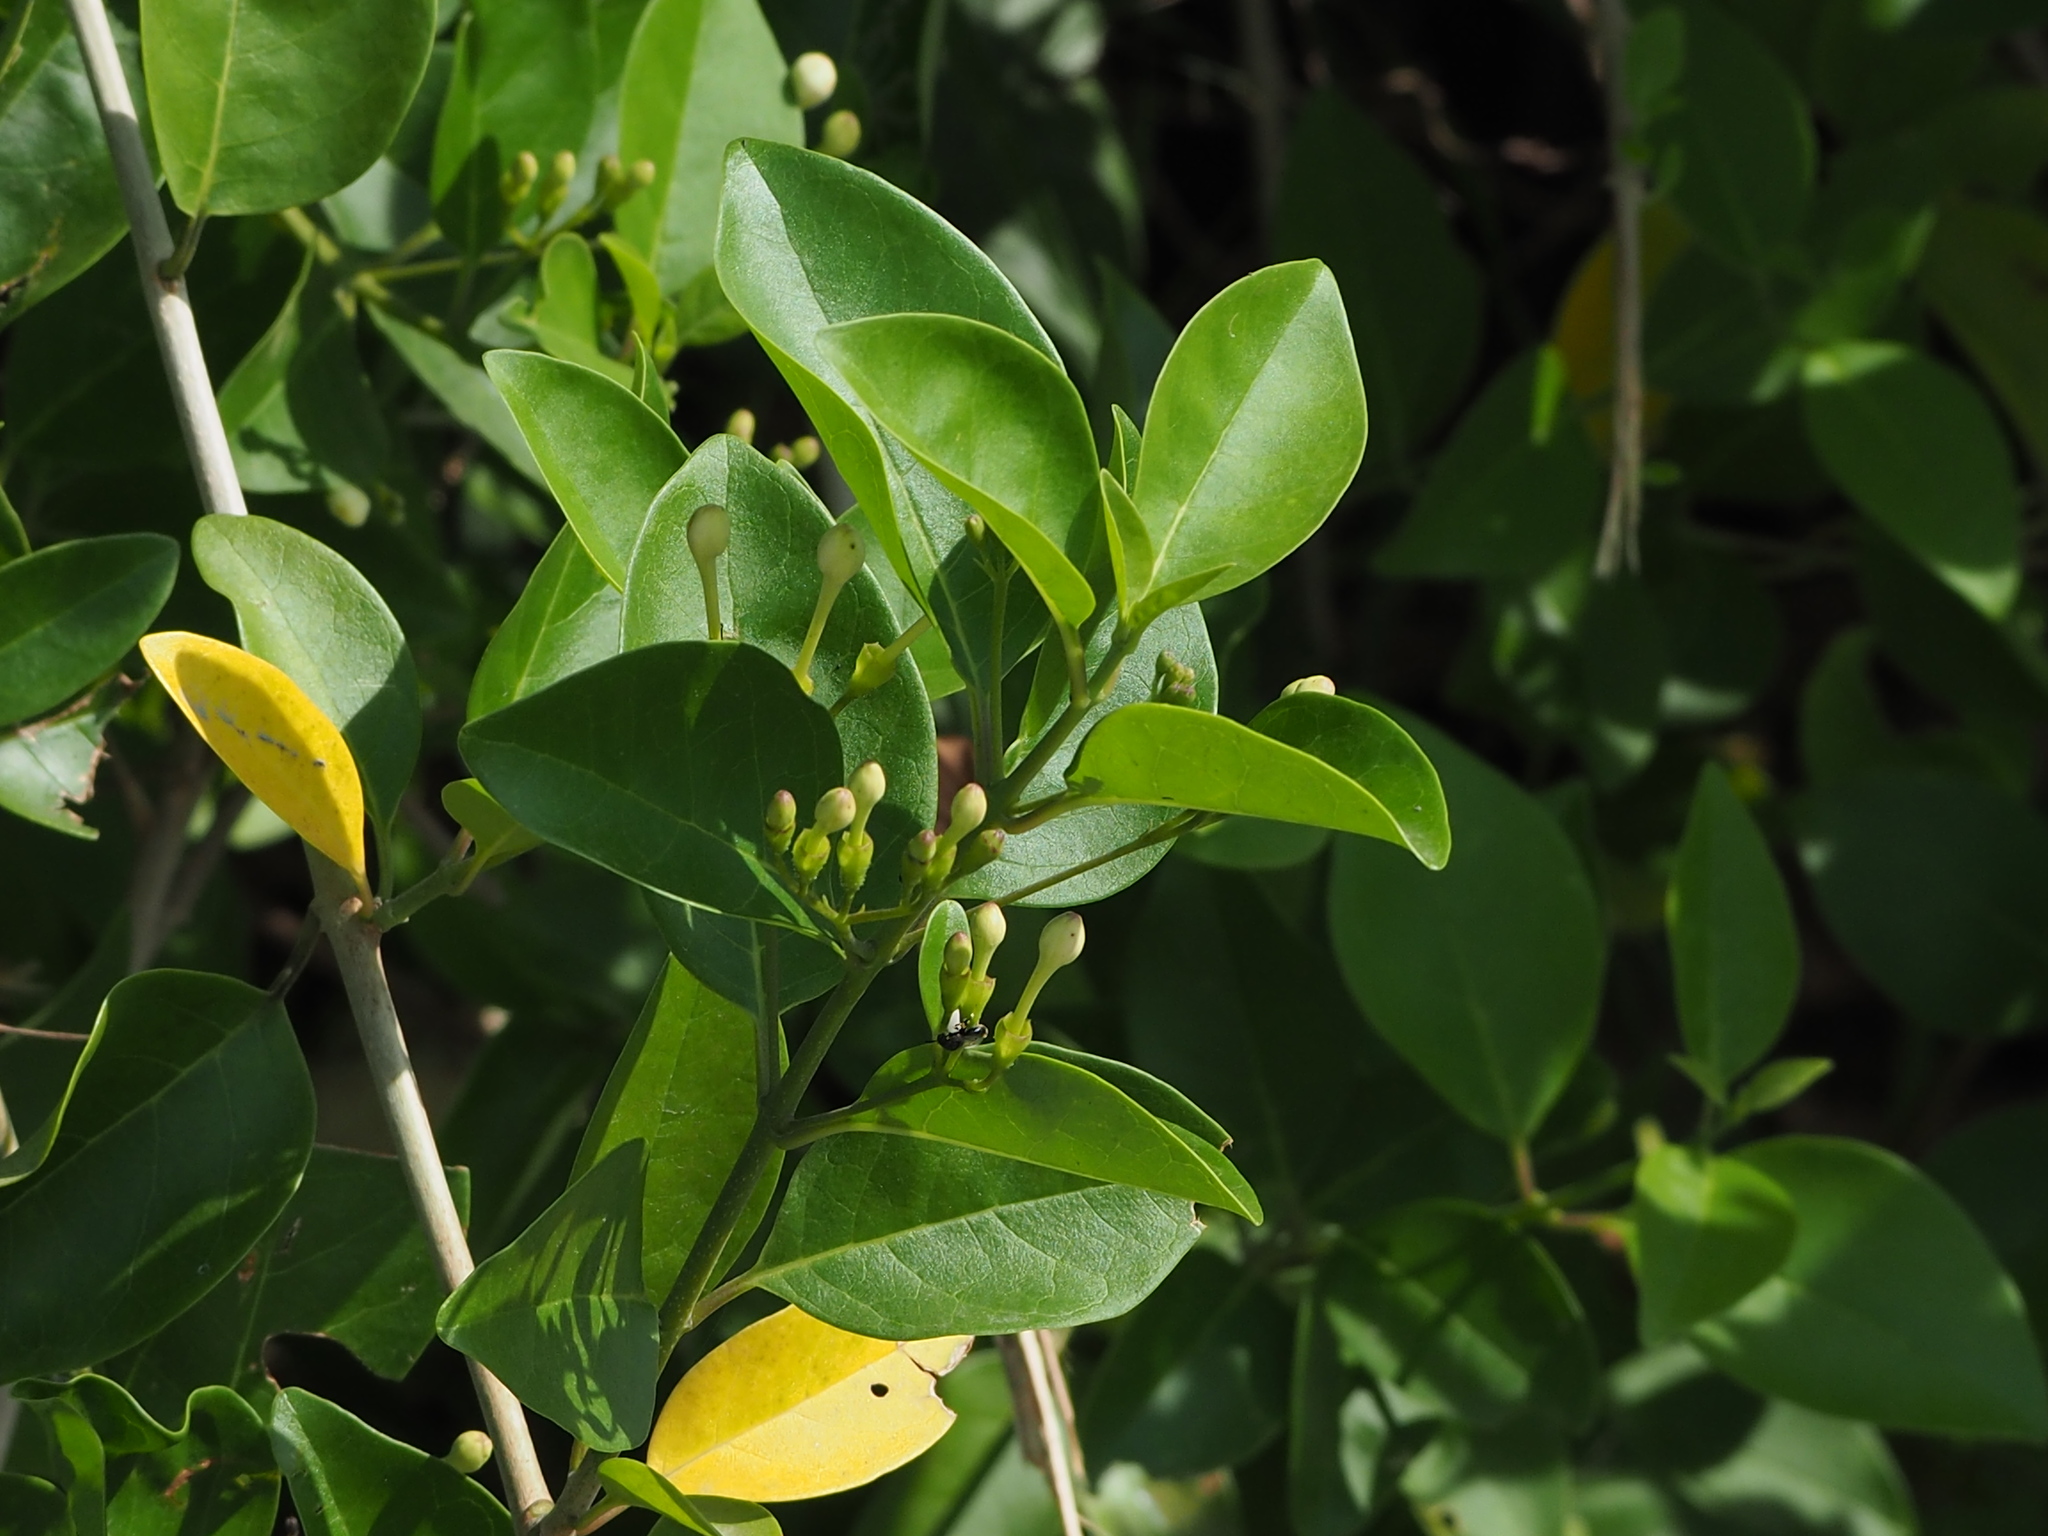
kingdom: Plantae
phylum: Tracheophyta
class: Magnoliopsida
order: Lamiales
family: Lamiaceae
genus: Volkameria
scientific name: Volkameria inermis
